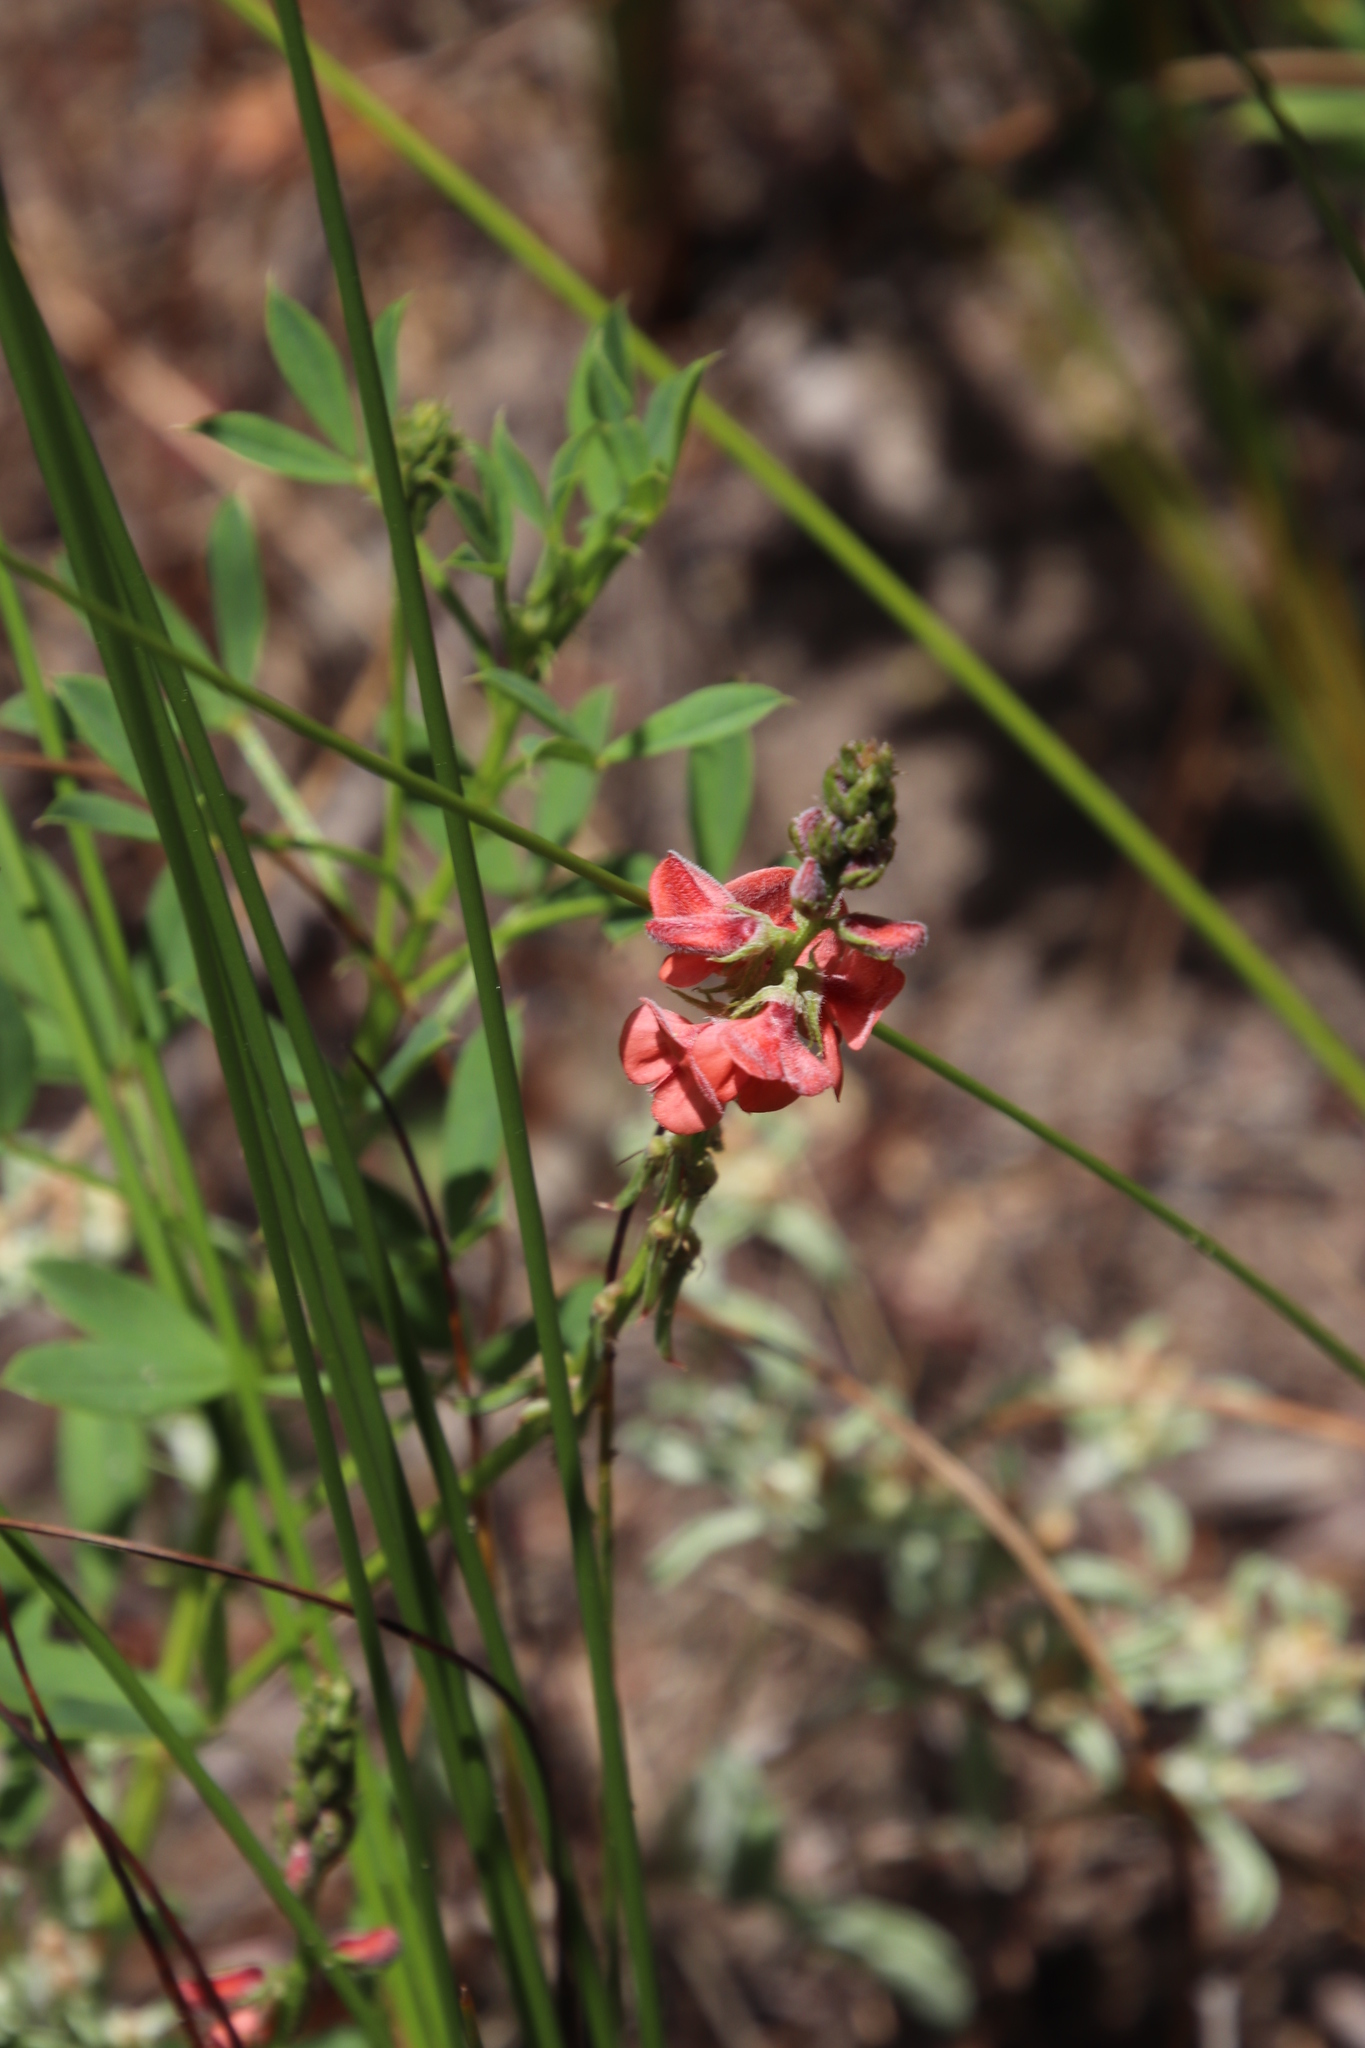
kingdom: Plantae
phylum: Tracheophyta
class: Magnoliopsida
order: Fabales
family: Fabaceae
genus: Indigofera
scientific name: Indigofera heterophylla
